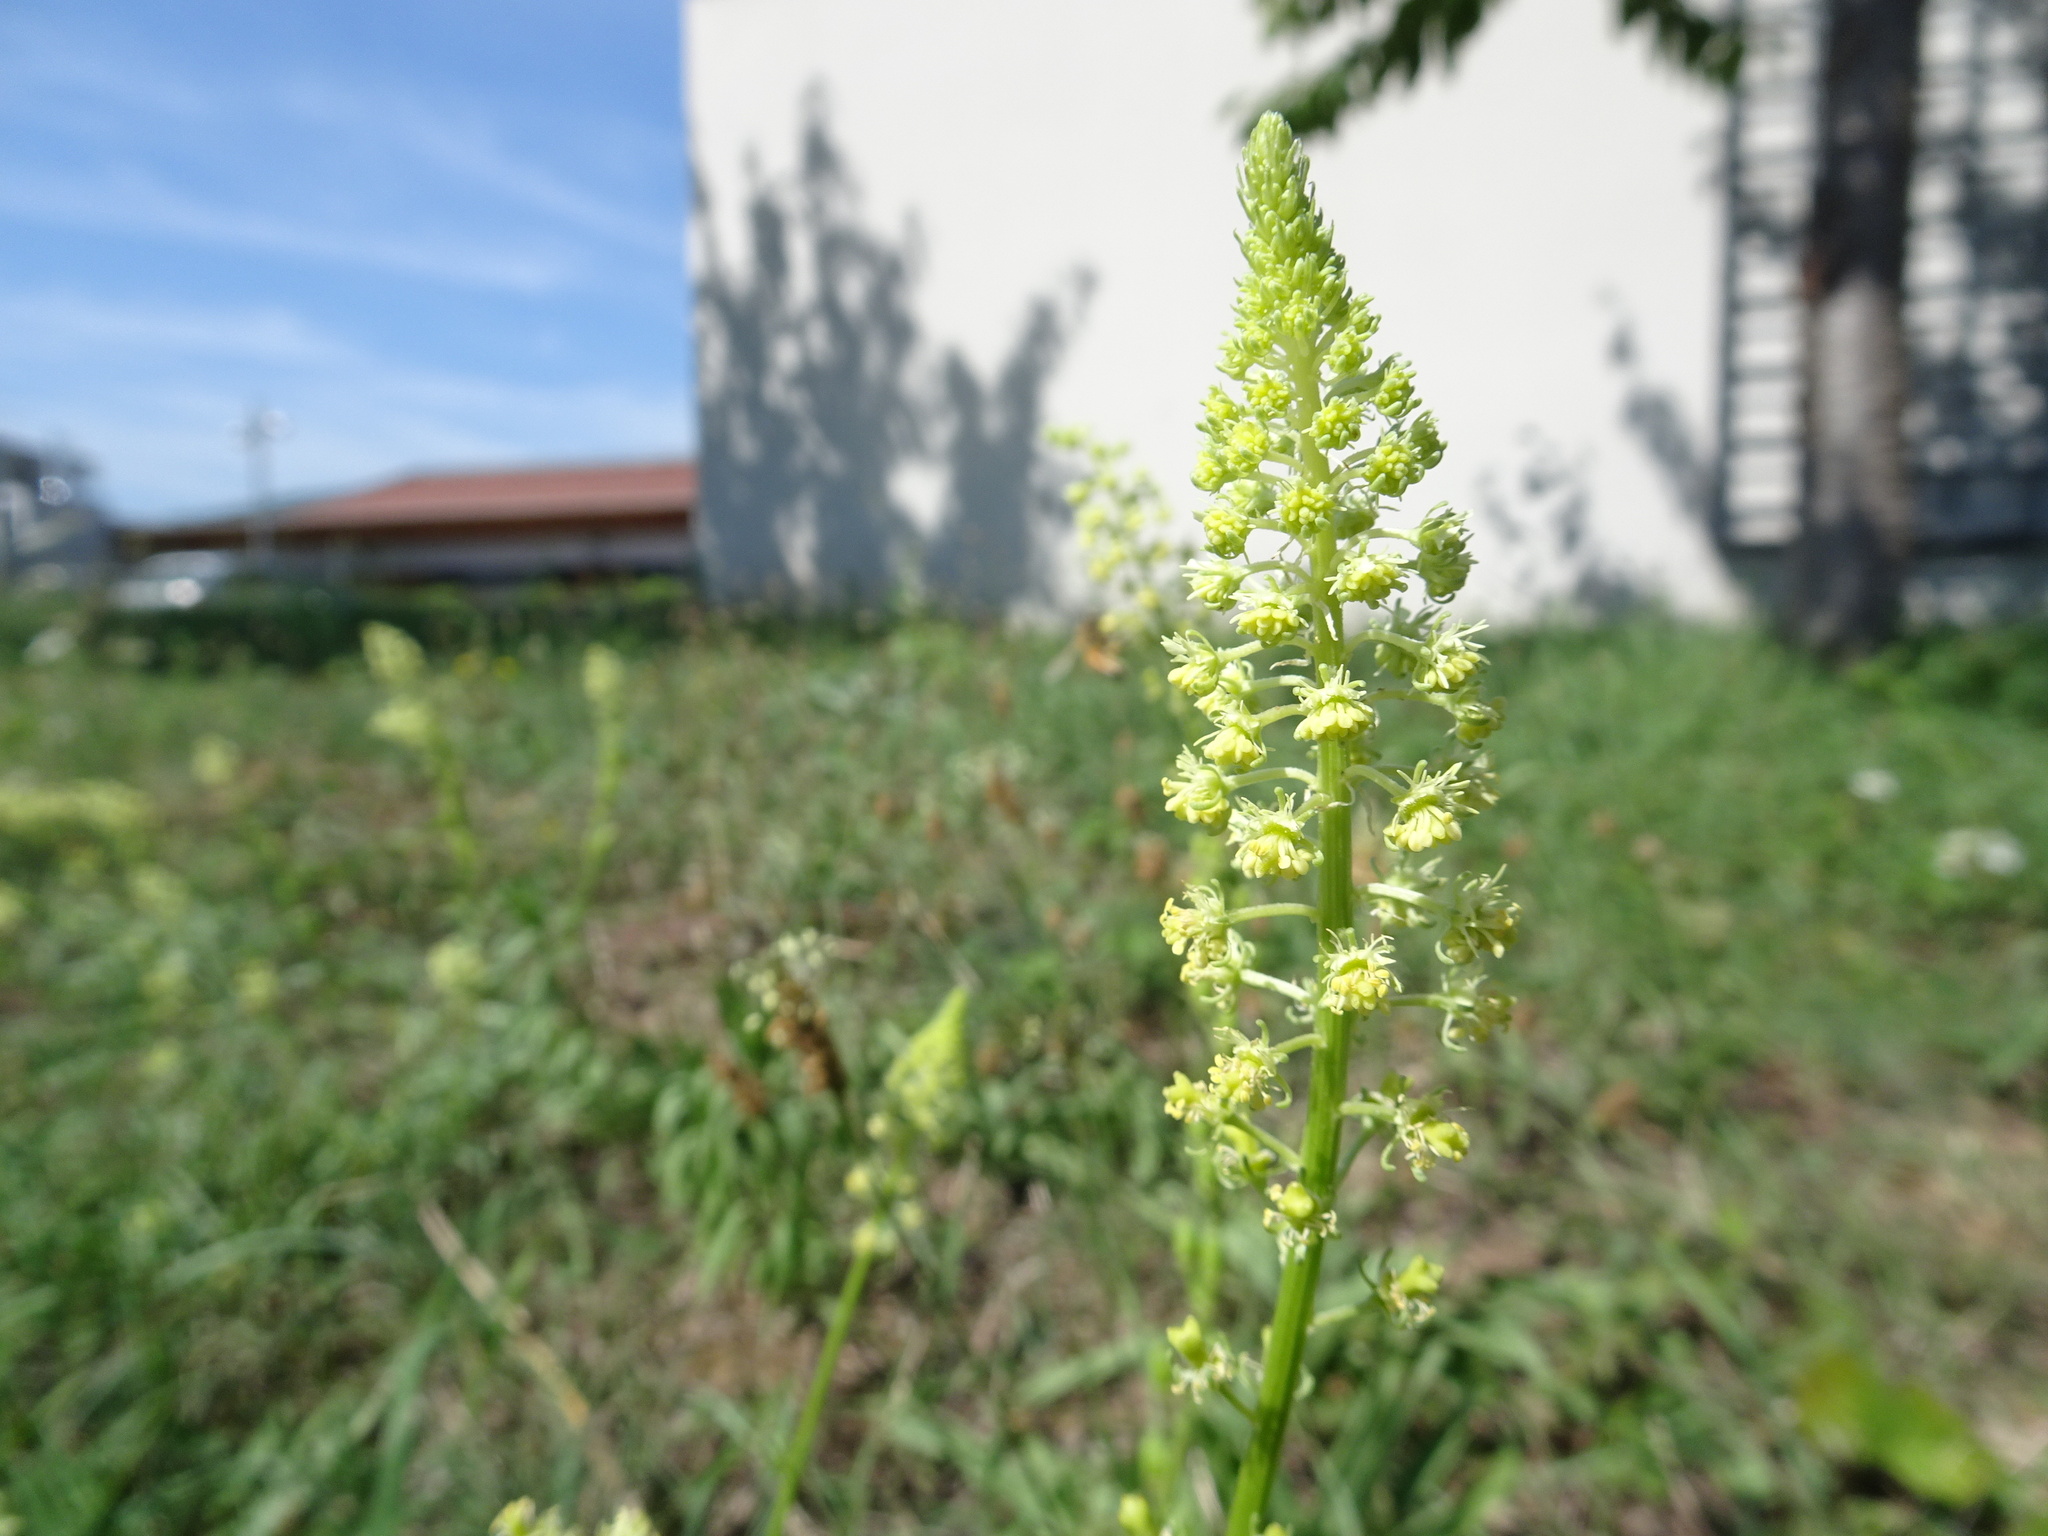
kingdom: Plantae
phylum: Tracheophyta
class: Magnoliopsida
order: Brassicales
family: Resedaceae
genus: Reseda
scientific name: Reseda lutea
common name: Wild mignonette
